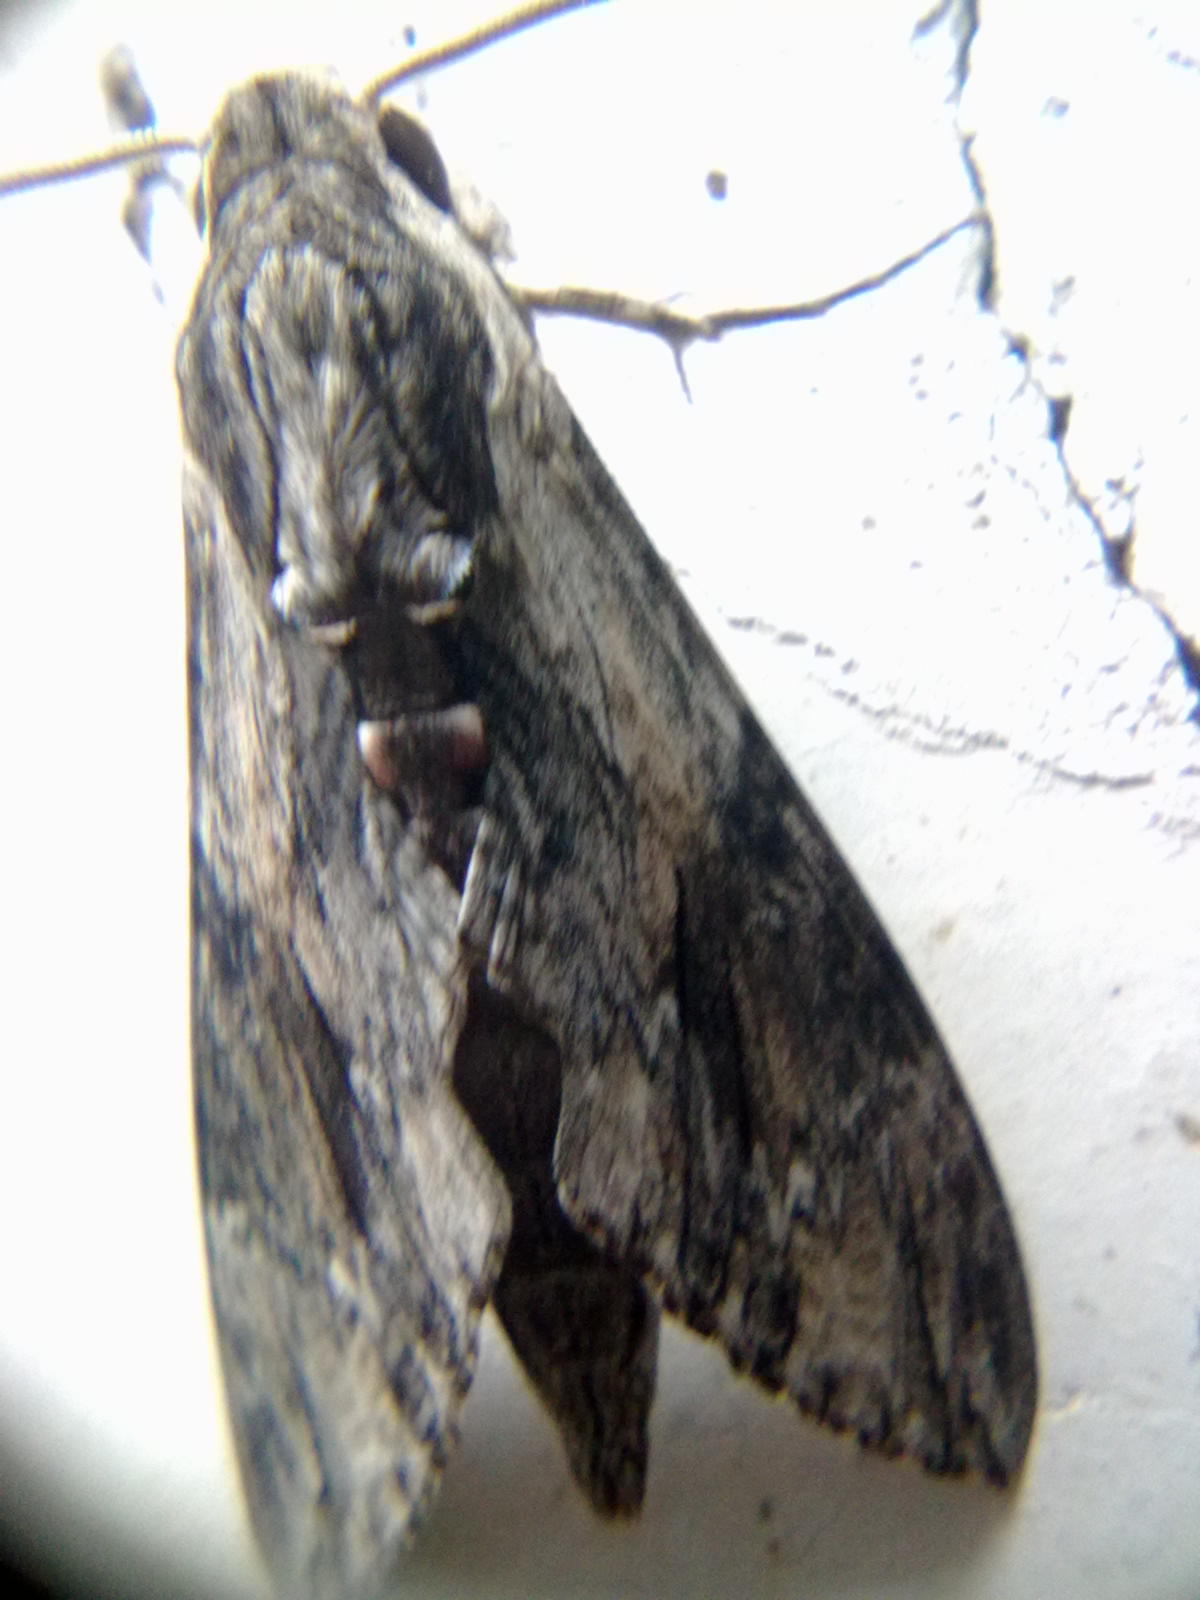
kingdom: Animalia
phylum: Arthropoda
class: Insecta
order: Lepidoptera
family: Sphingidae
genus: Agrius
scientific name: Agrius convolvuli
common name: Convolvulus hawkmoth
